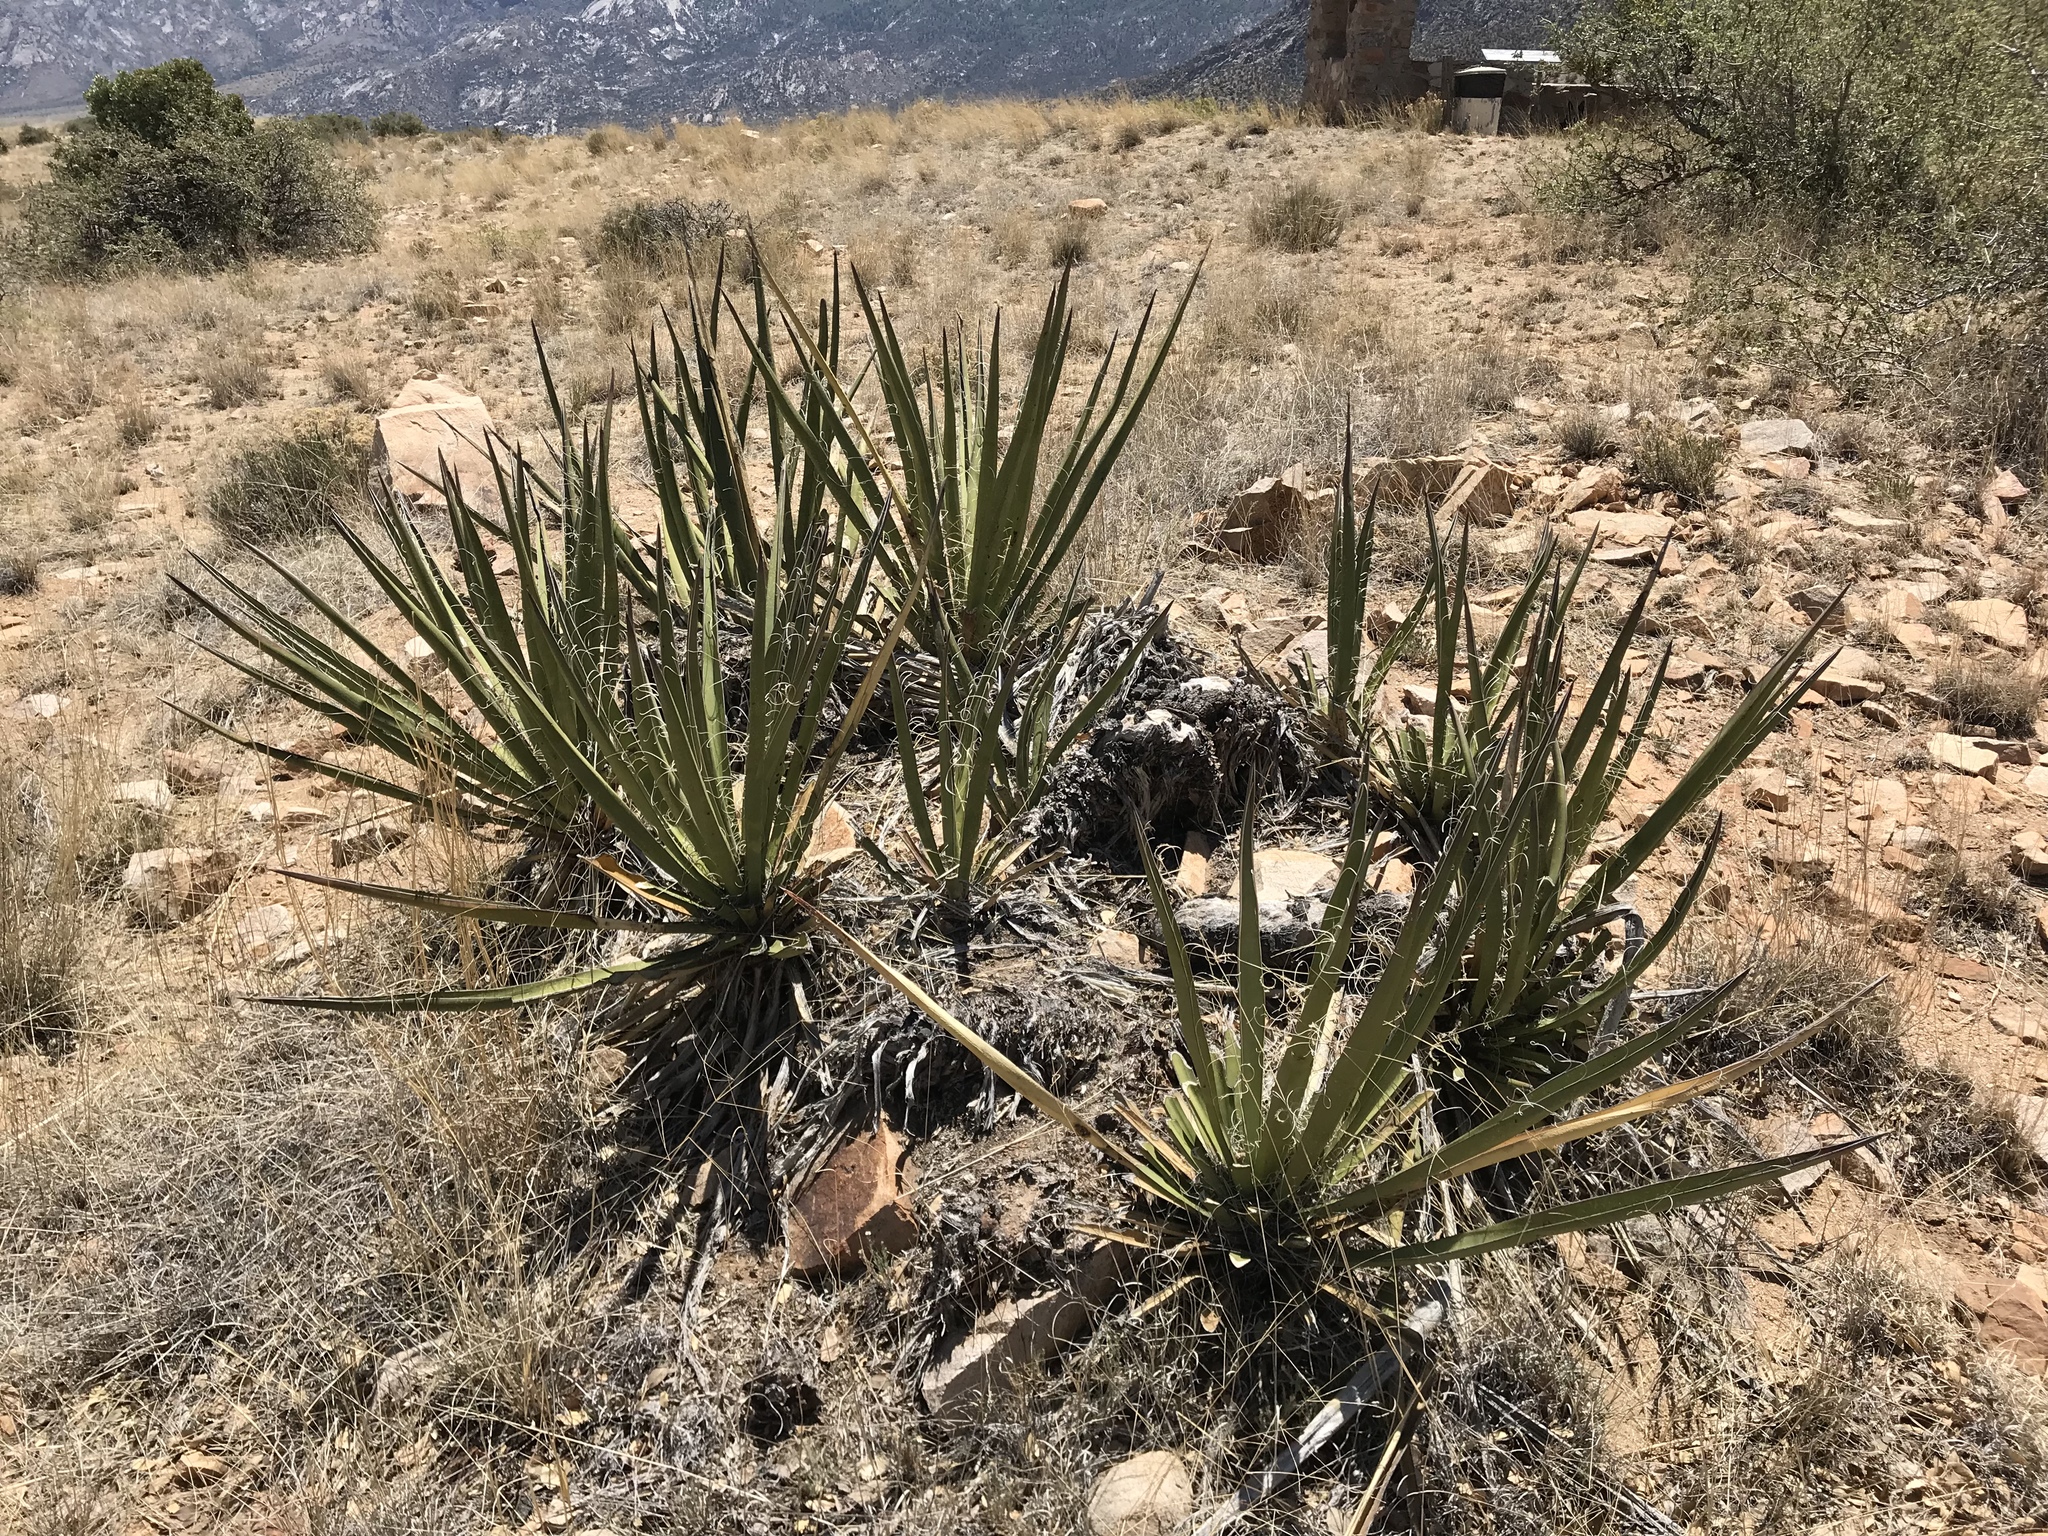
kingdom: Plantae
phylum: Tracheophyta
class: Liliopsida
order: Asparagales
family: Asparagaceae
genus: Yucca
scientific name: Yucca baccata
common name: Banana yucca
